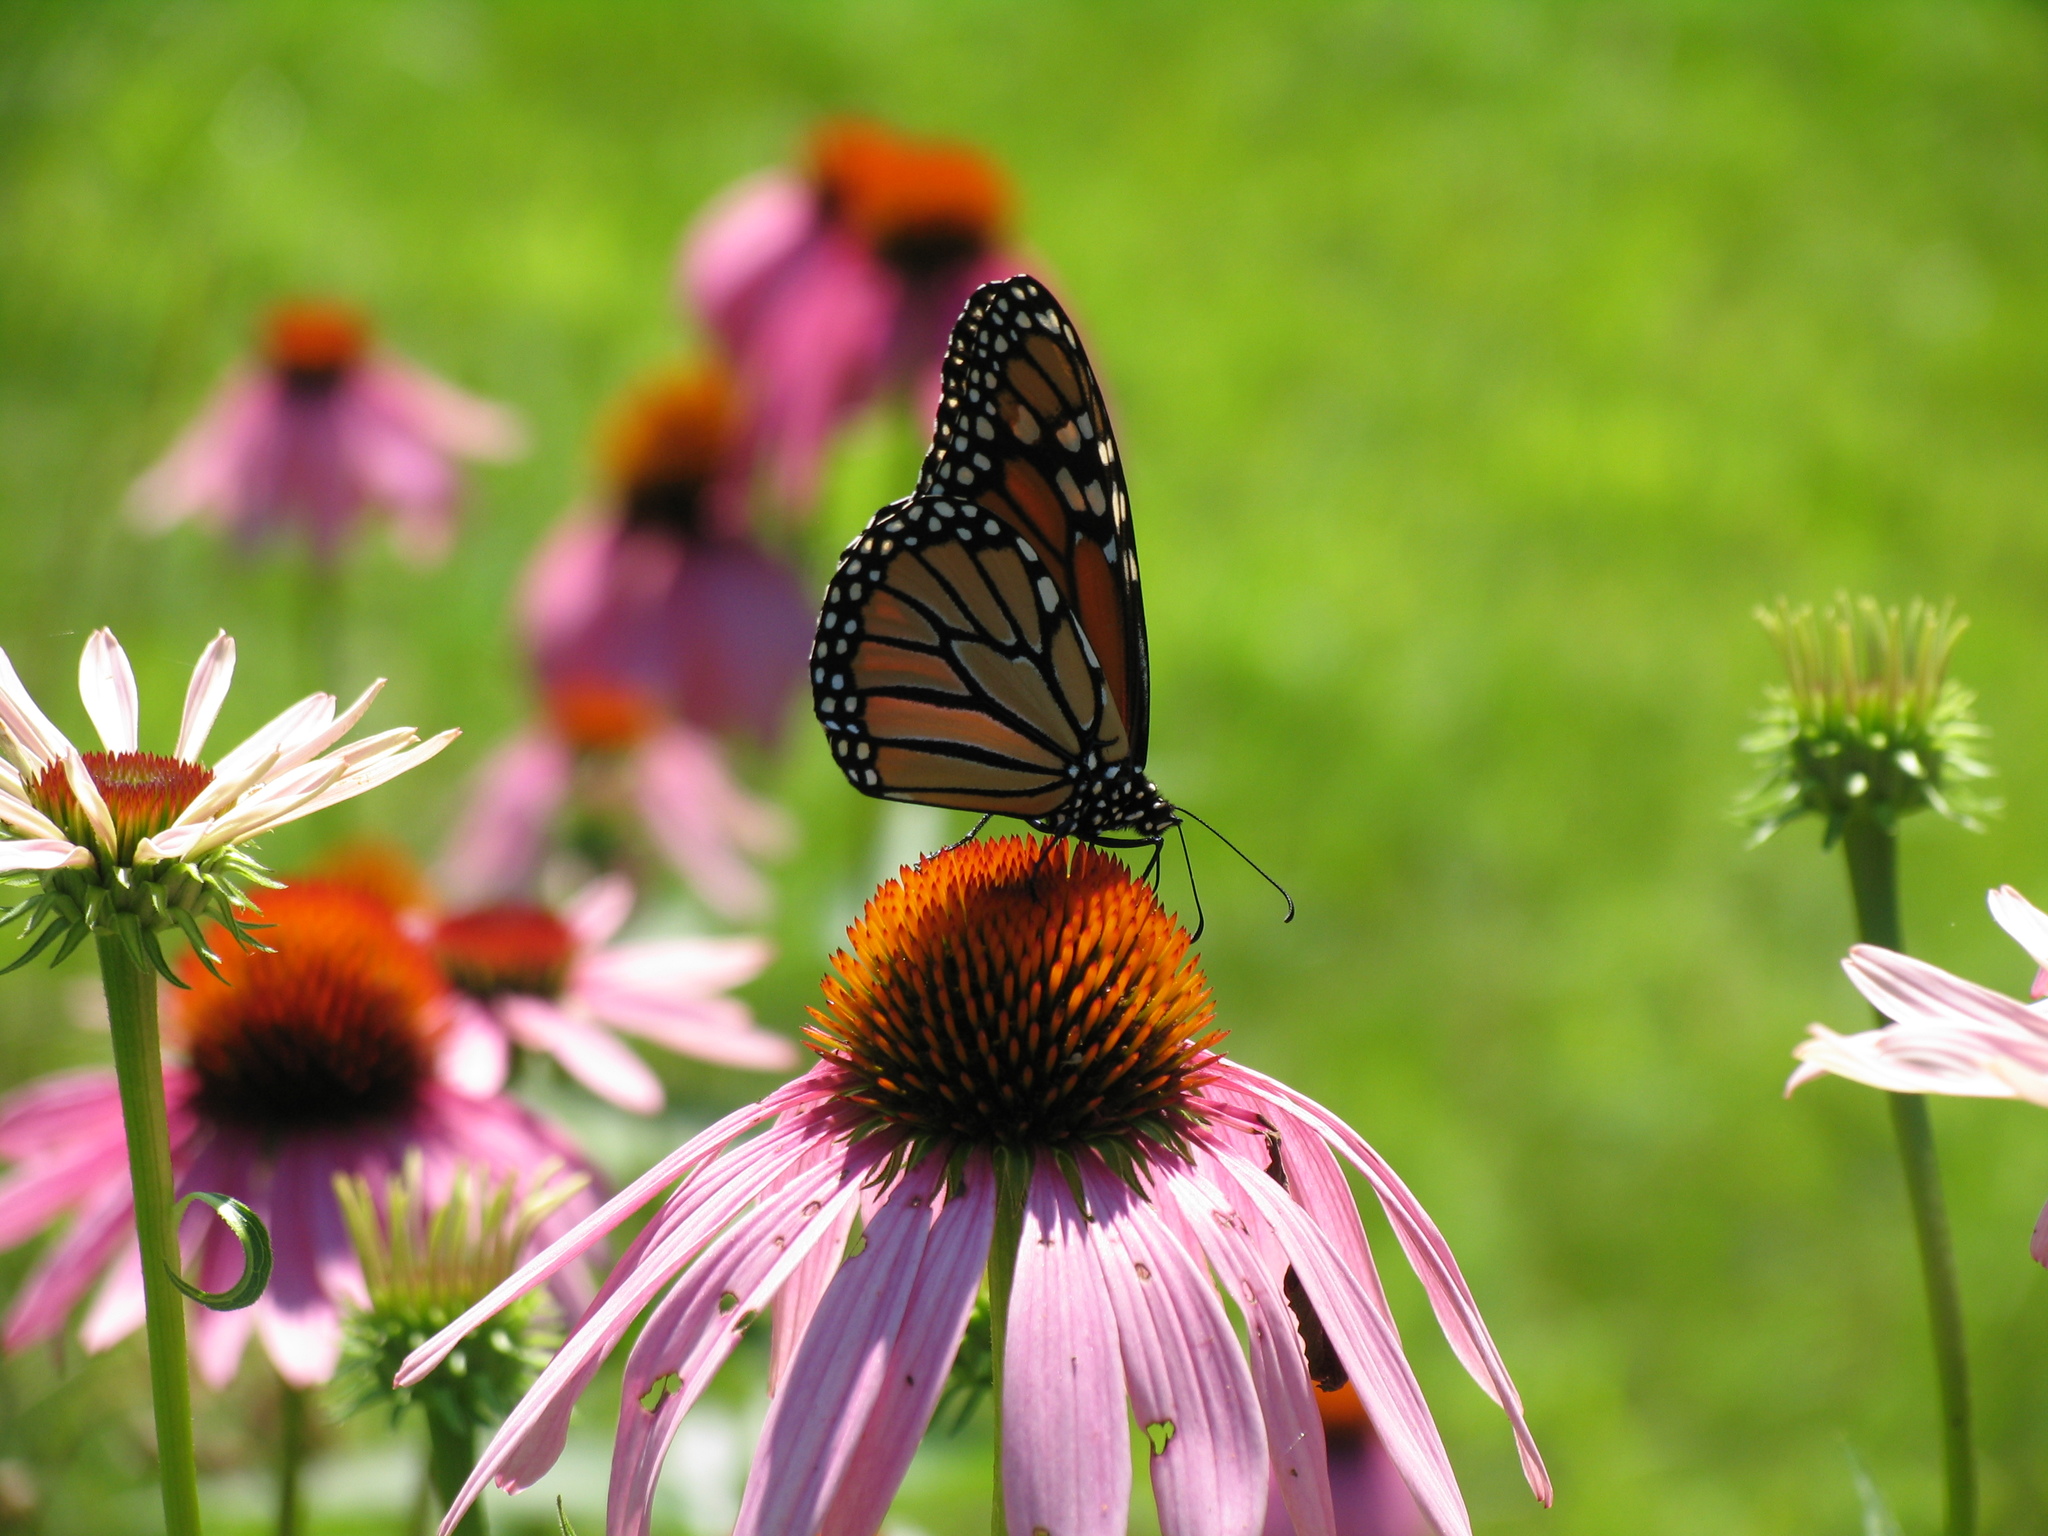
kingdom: Animalia
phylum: Arthropoda
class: Insecta
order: Lepidoptera
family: Nymphalidae
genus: Danaus
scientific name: Danaus plexippus
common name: Monarch
